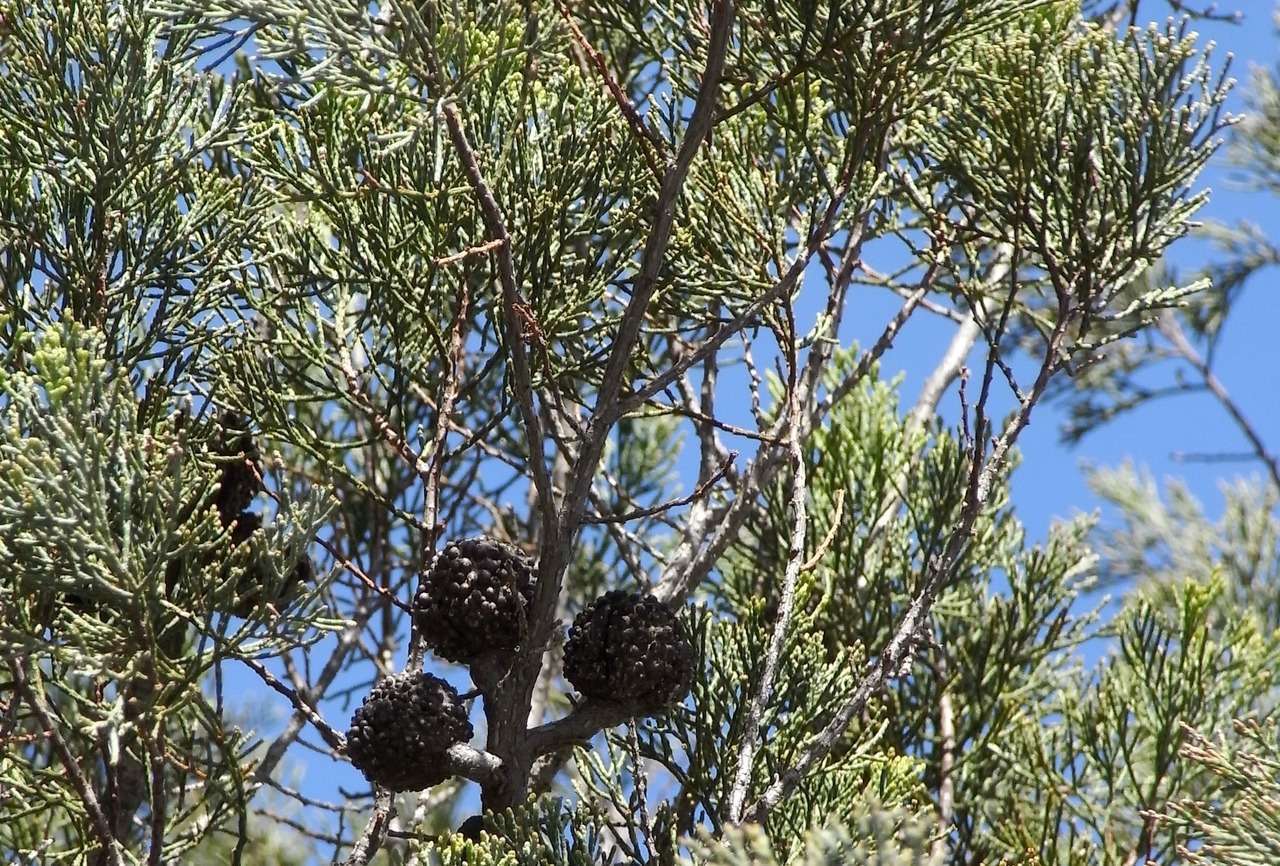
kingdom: Plantae
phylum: Tracheophyta
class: Pinopsida
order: Pinales
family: Cupressaceae
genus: Callitris
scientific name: Callitris verrucosa
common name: Scrub cypress-pine
